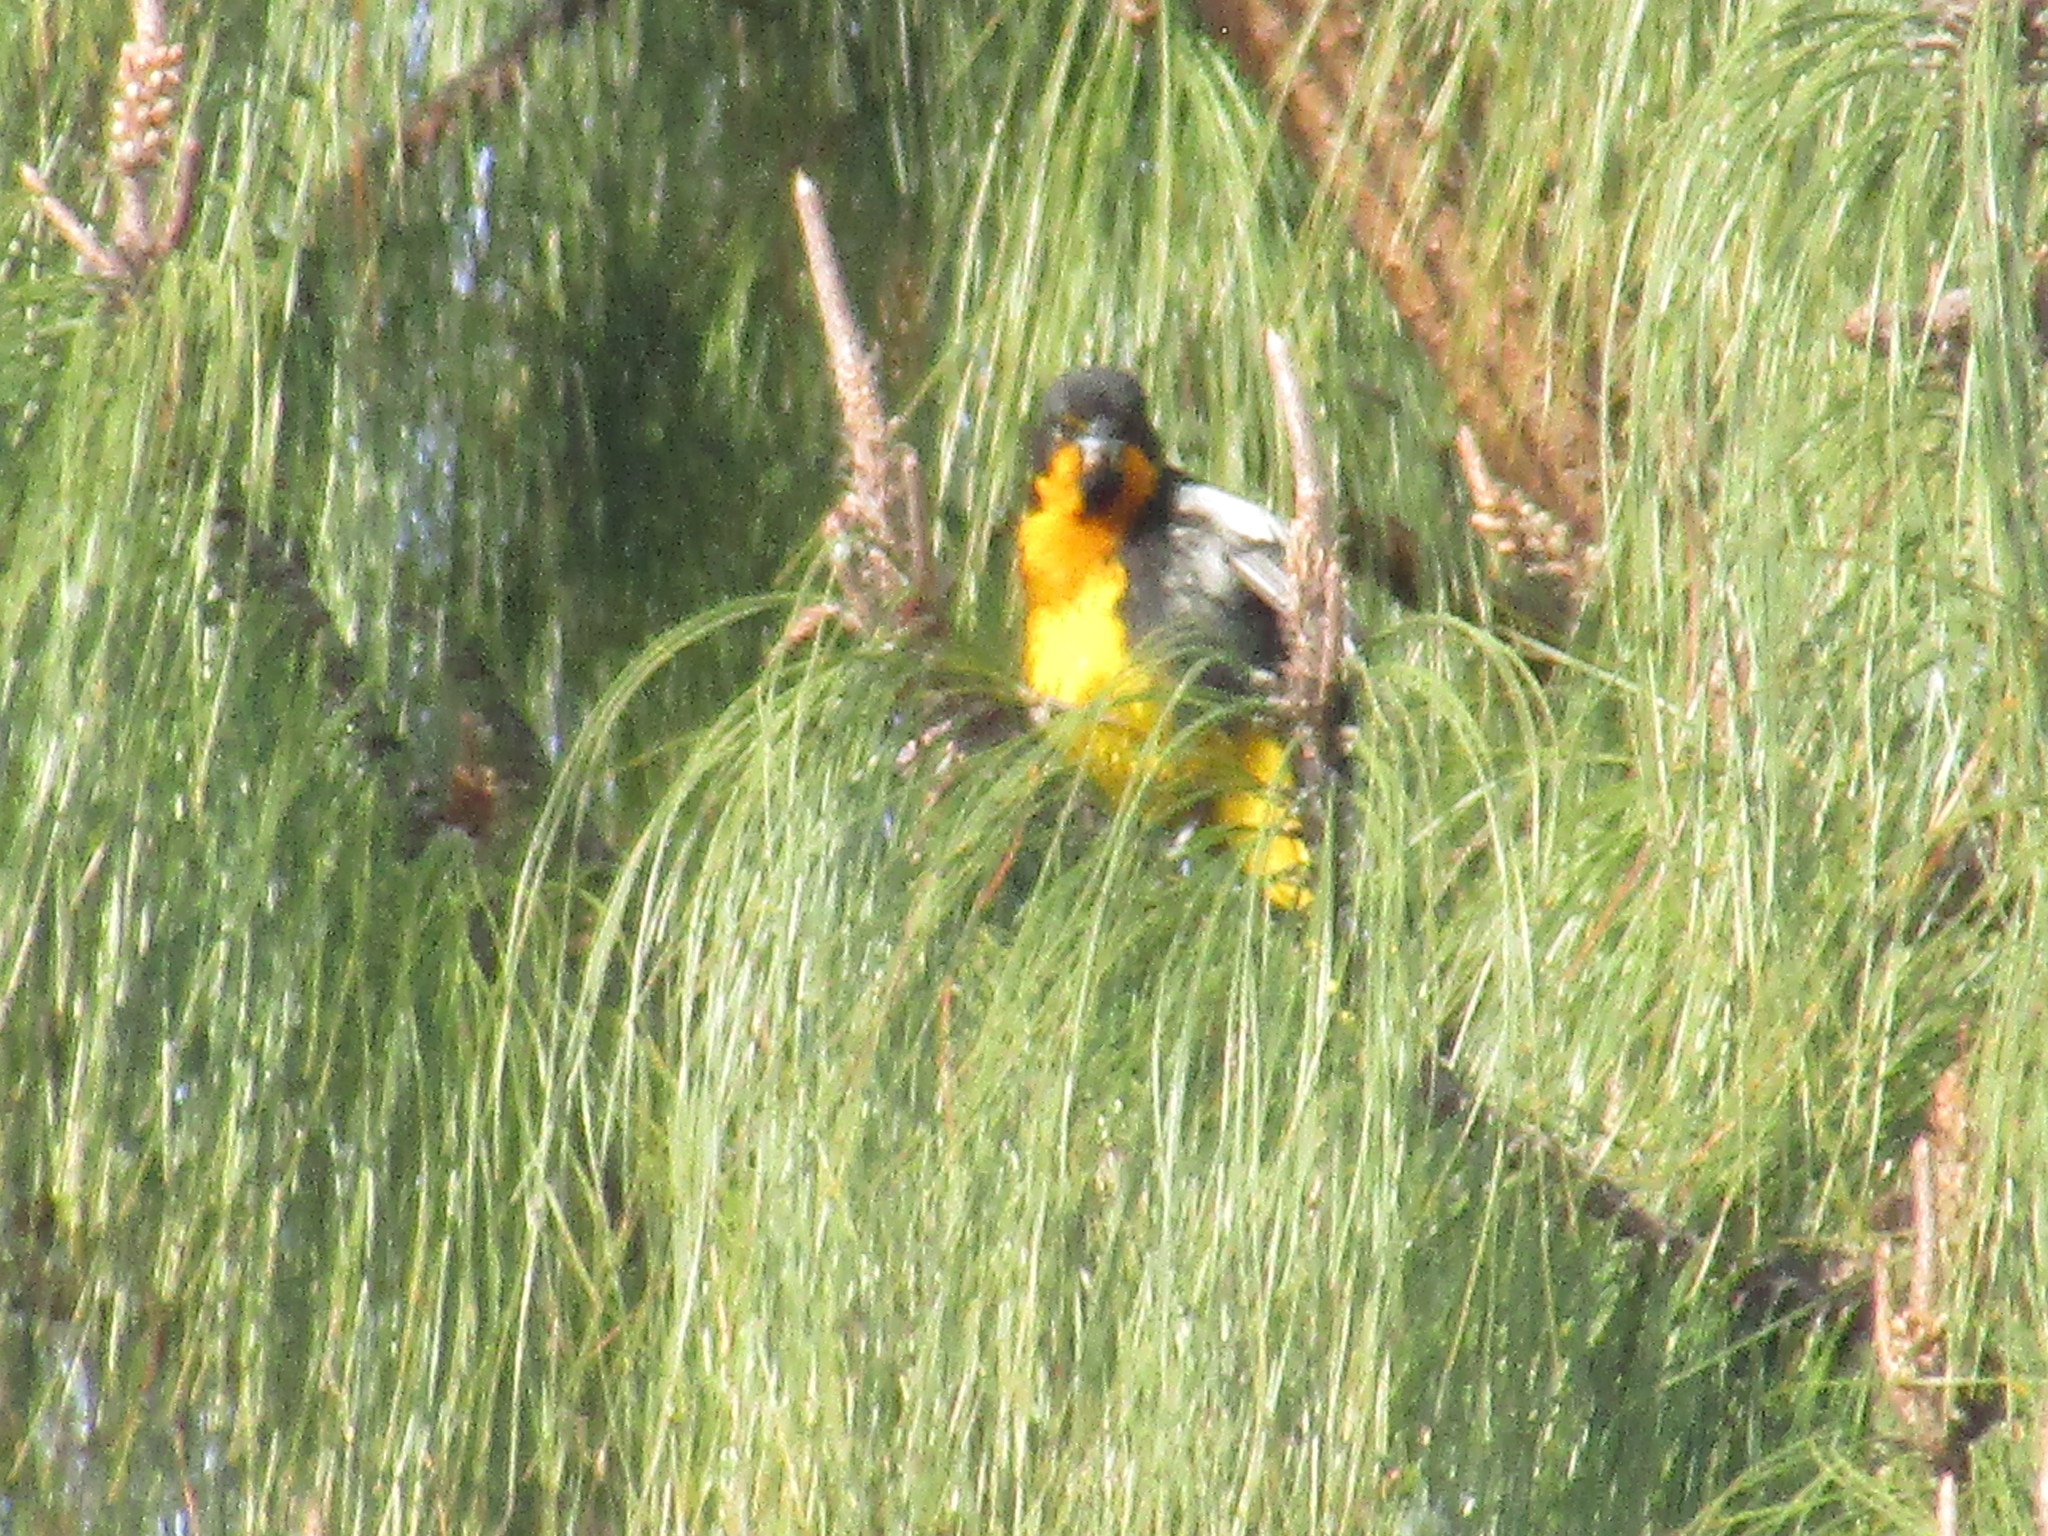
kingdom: Animalia
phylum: Chordata
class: Aves
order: Passeriformes
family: Icteridae
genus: Icterus
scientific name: Icterus abeillei
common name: Black-backed oriole
